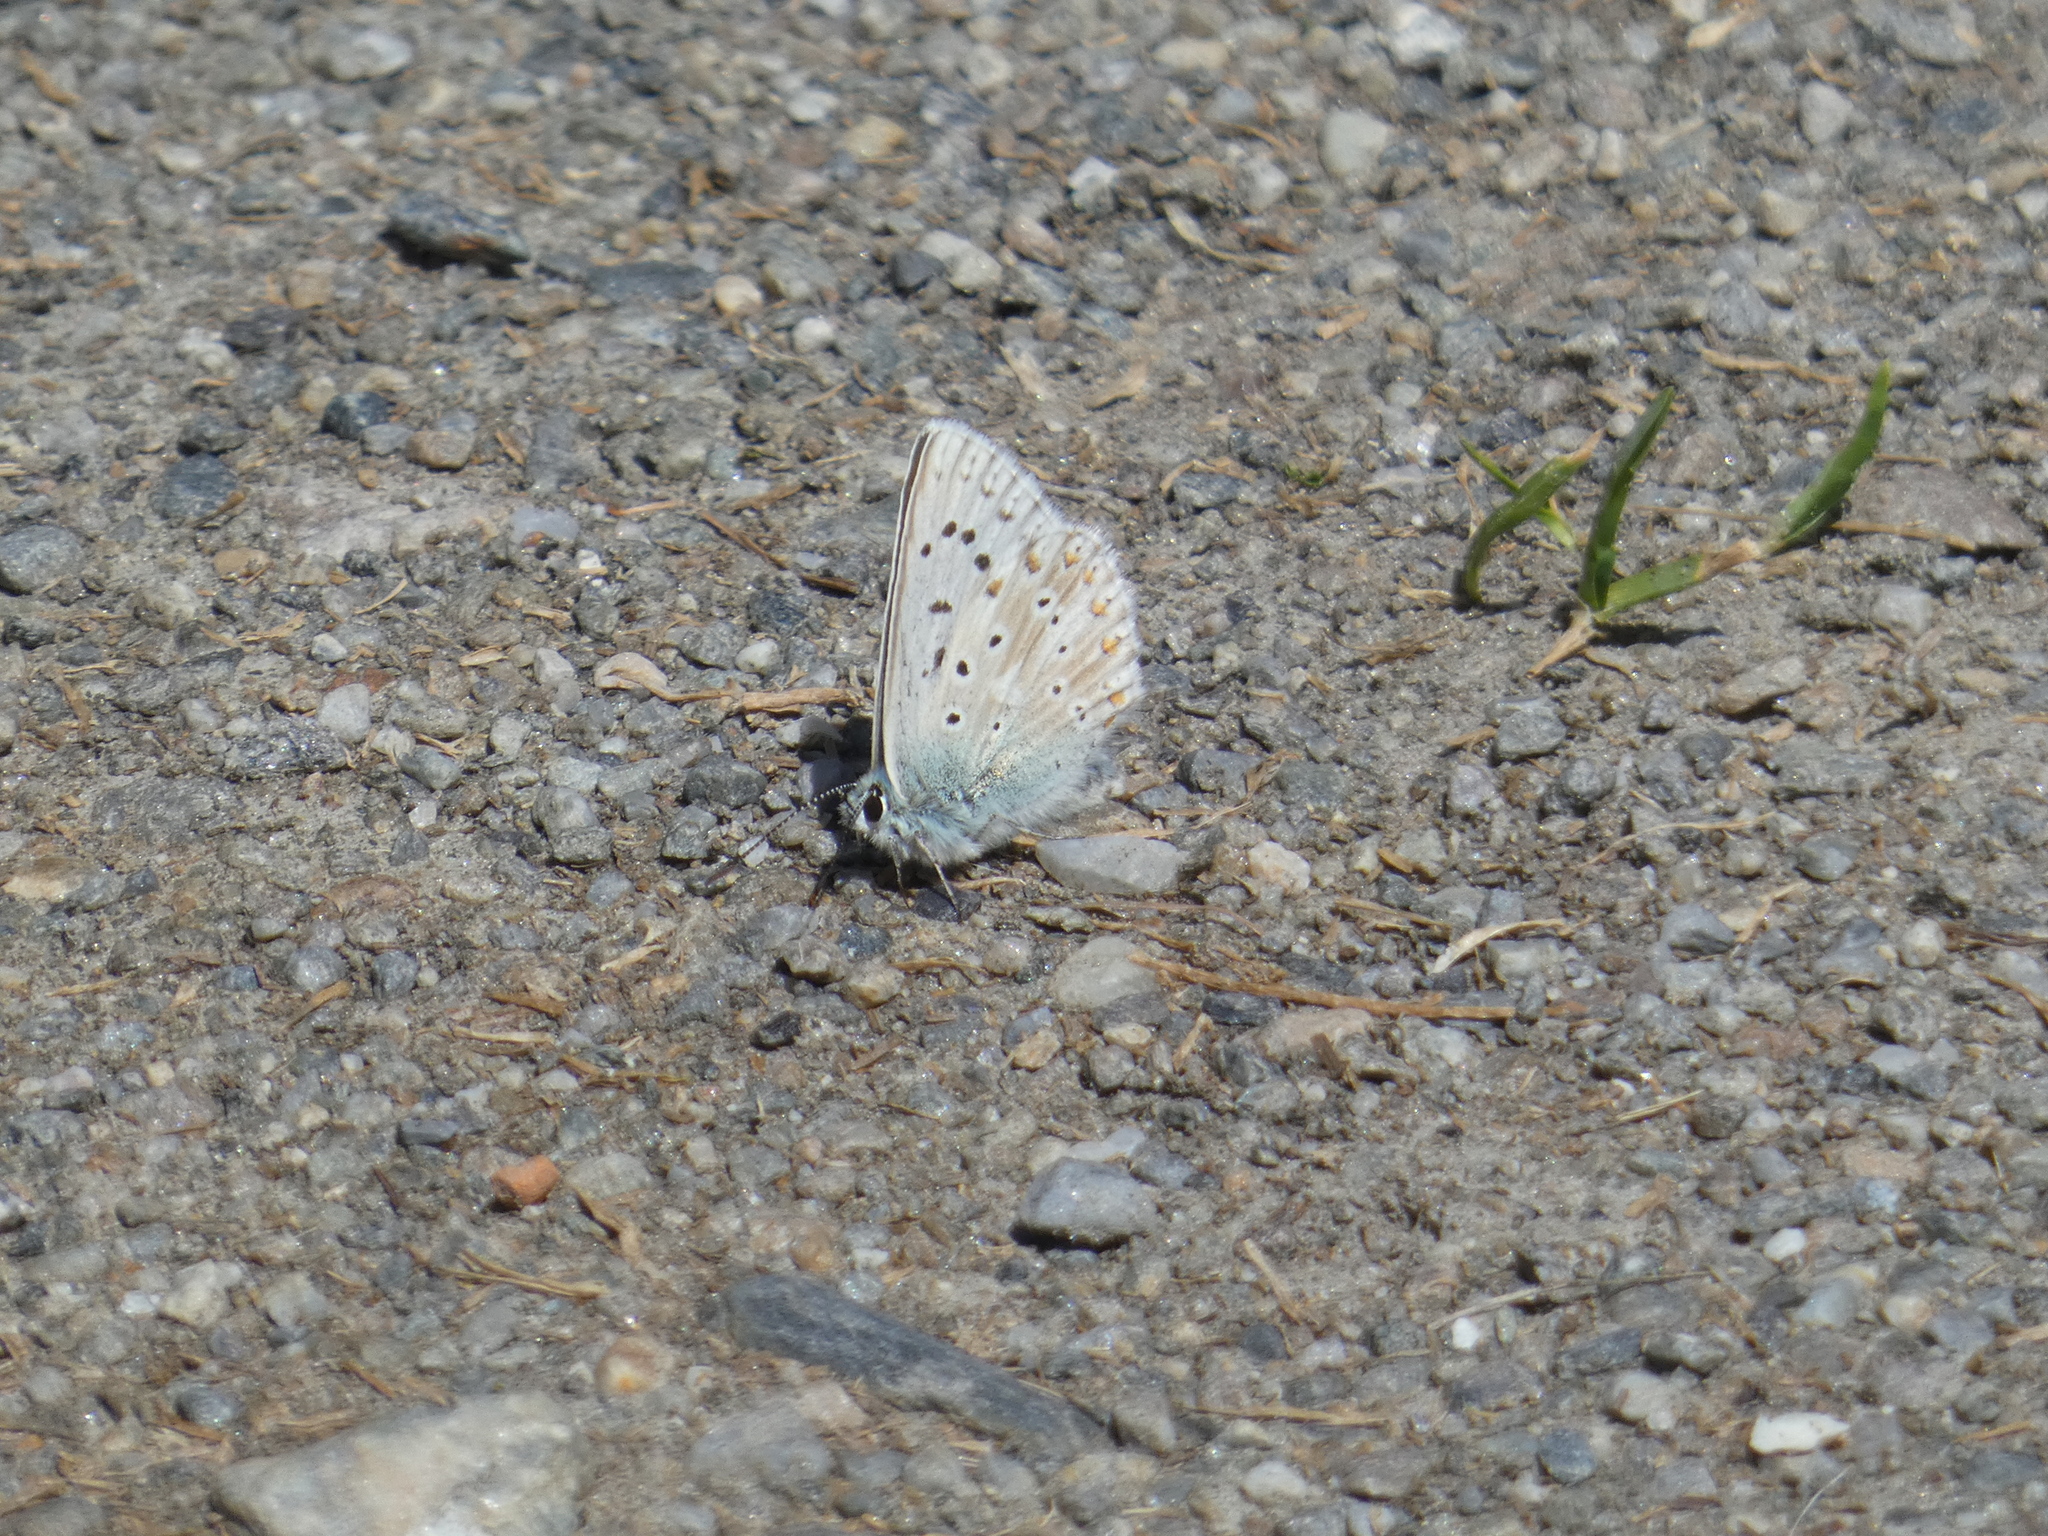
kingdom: Animalia
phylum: Arthropoda
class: Insecta
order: Lepidoptera
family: Lycaenidae
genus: Lysandra
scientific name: Lysandra coridon
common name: Chalkhill blue
